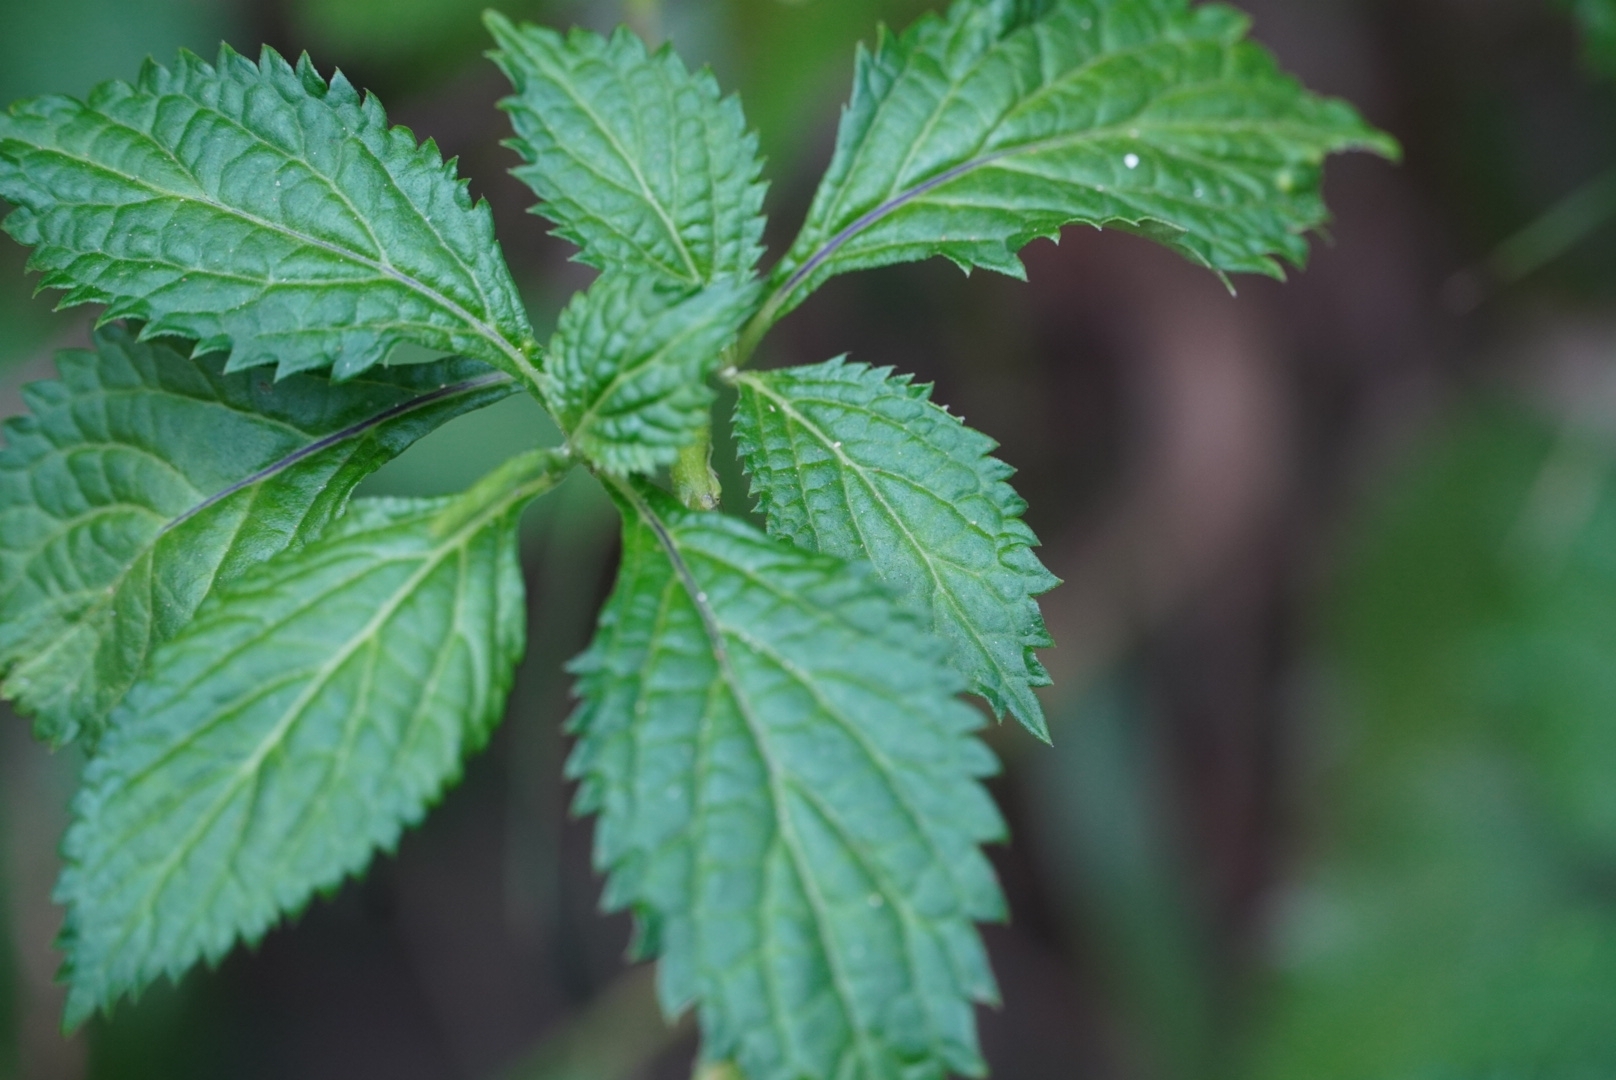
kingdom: Plantae
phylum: Tracheophyta
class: Magnoliopsida
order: Lamiales
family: Verbenaceae
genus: Stachytarpheta
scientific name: Stachytarpheta urticifolia
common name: Nettleleaf velvetberry
